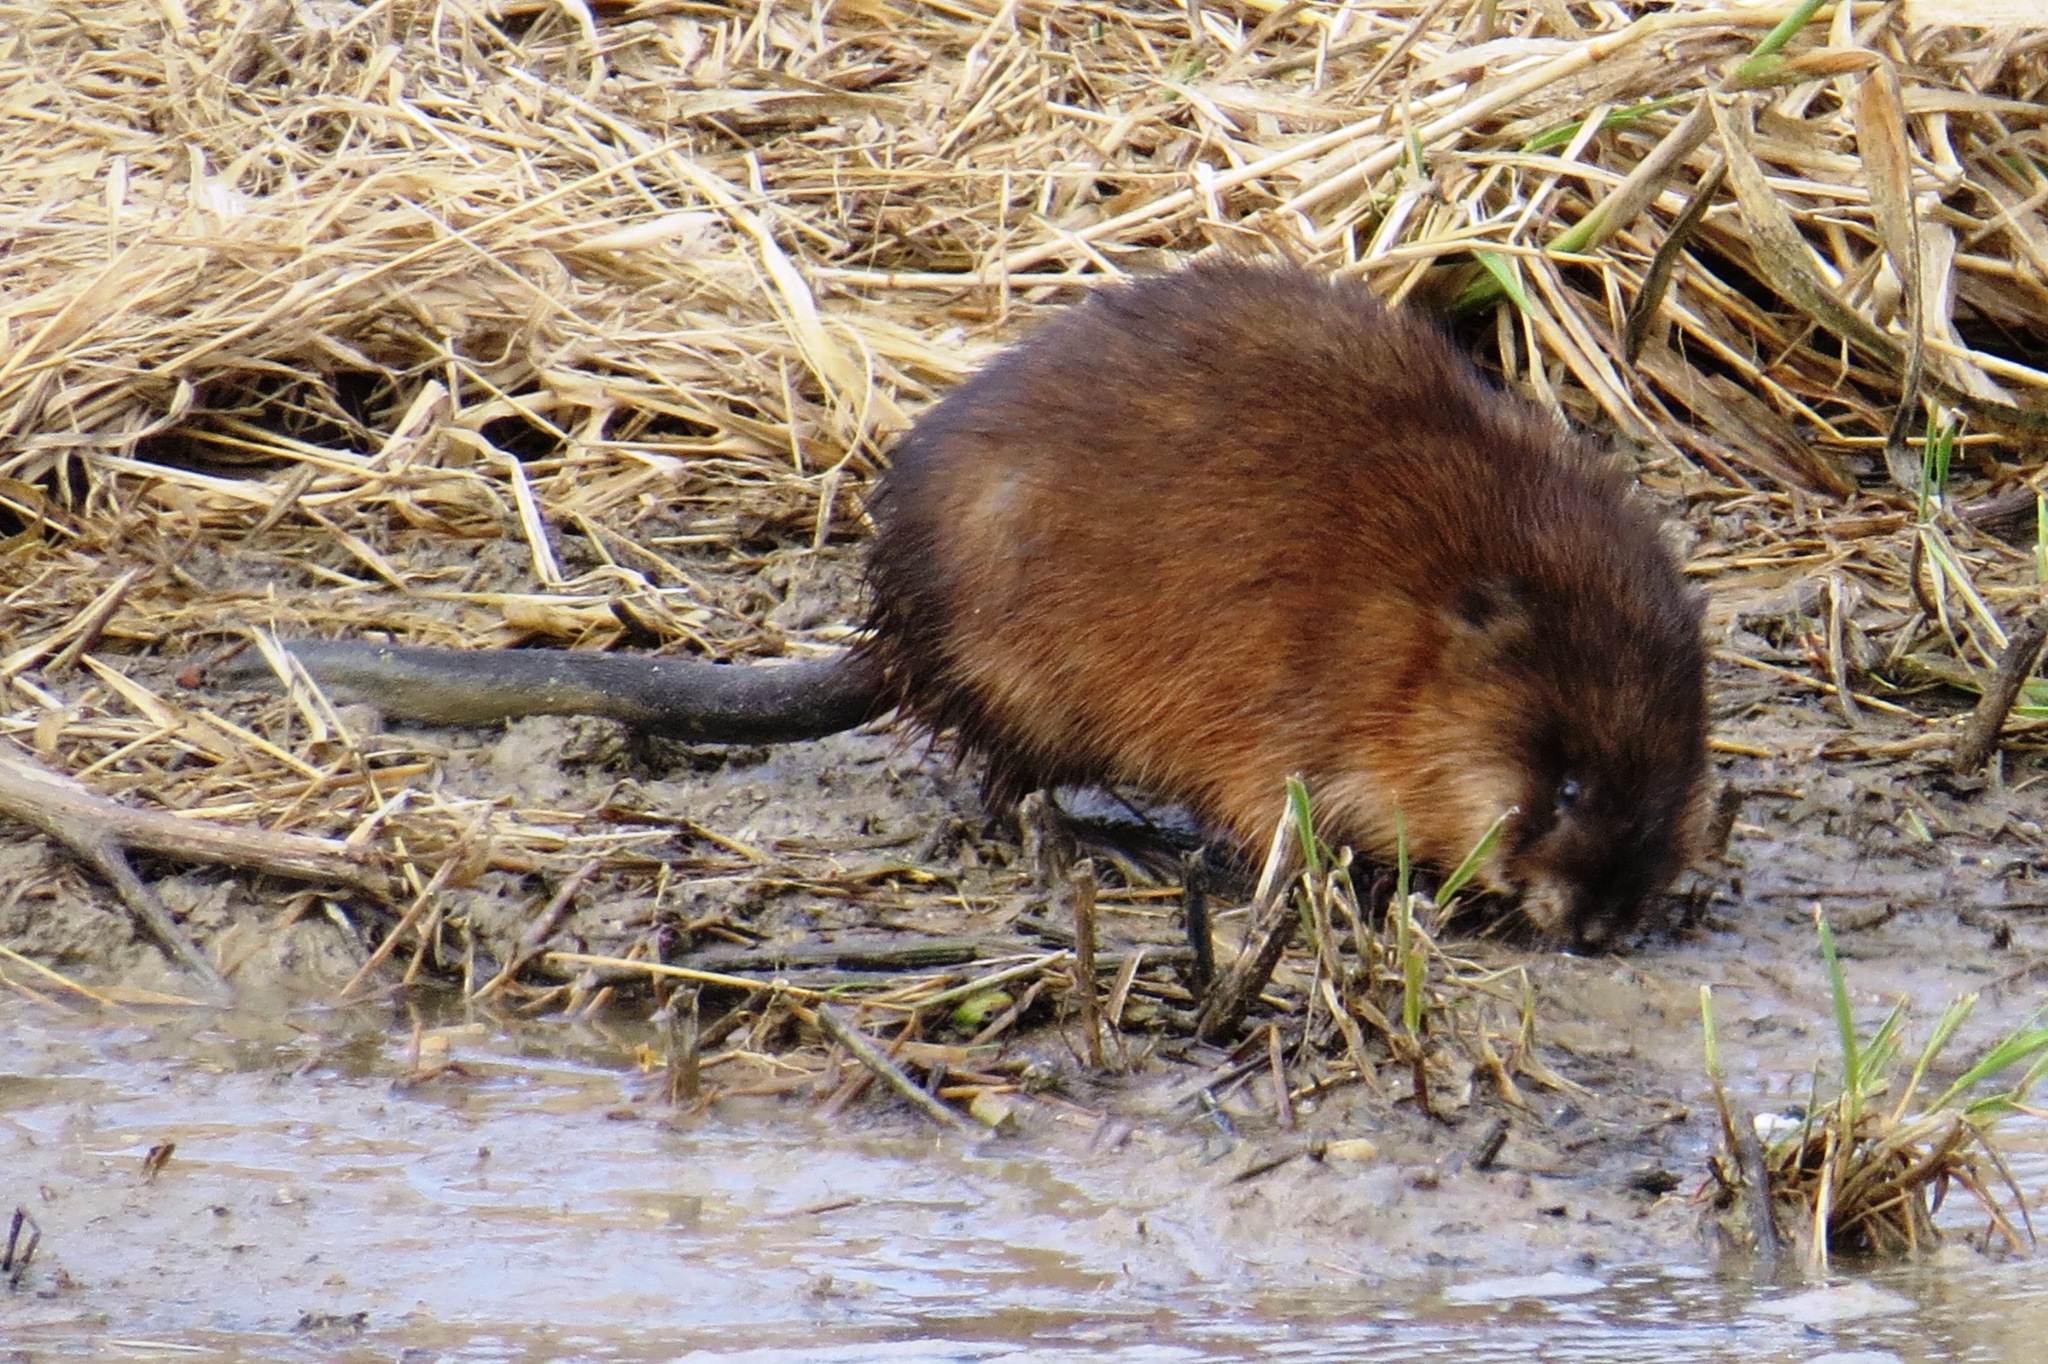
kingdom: Animalia
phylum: Chordata
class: Mammalia
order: Rodentia
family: Cricetidae
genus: Ondatra
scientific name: Ondatra zibethicus
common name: Muskrat
